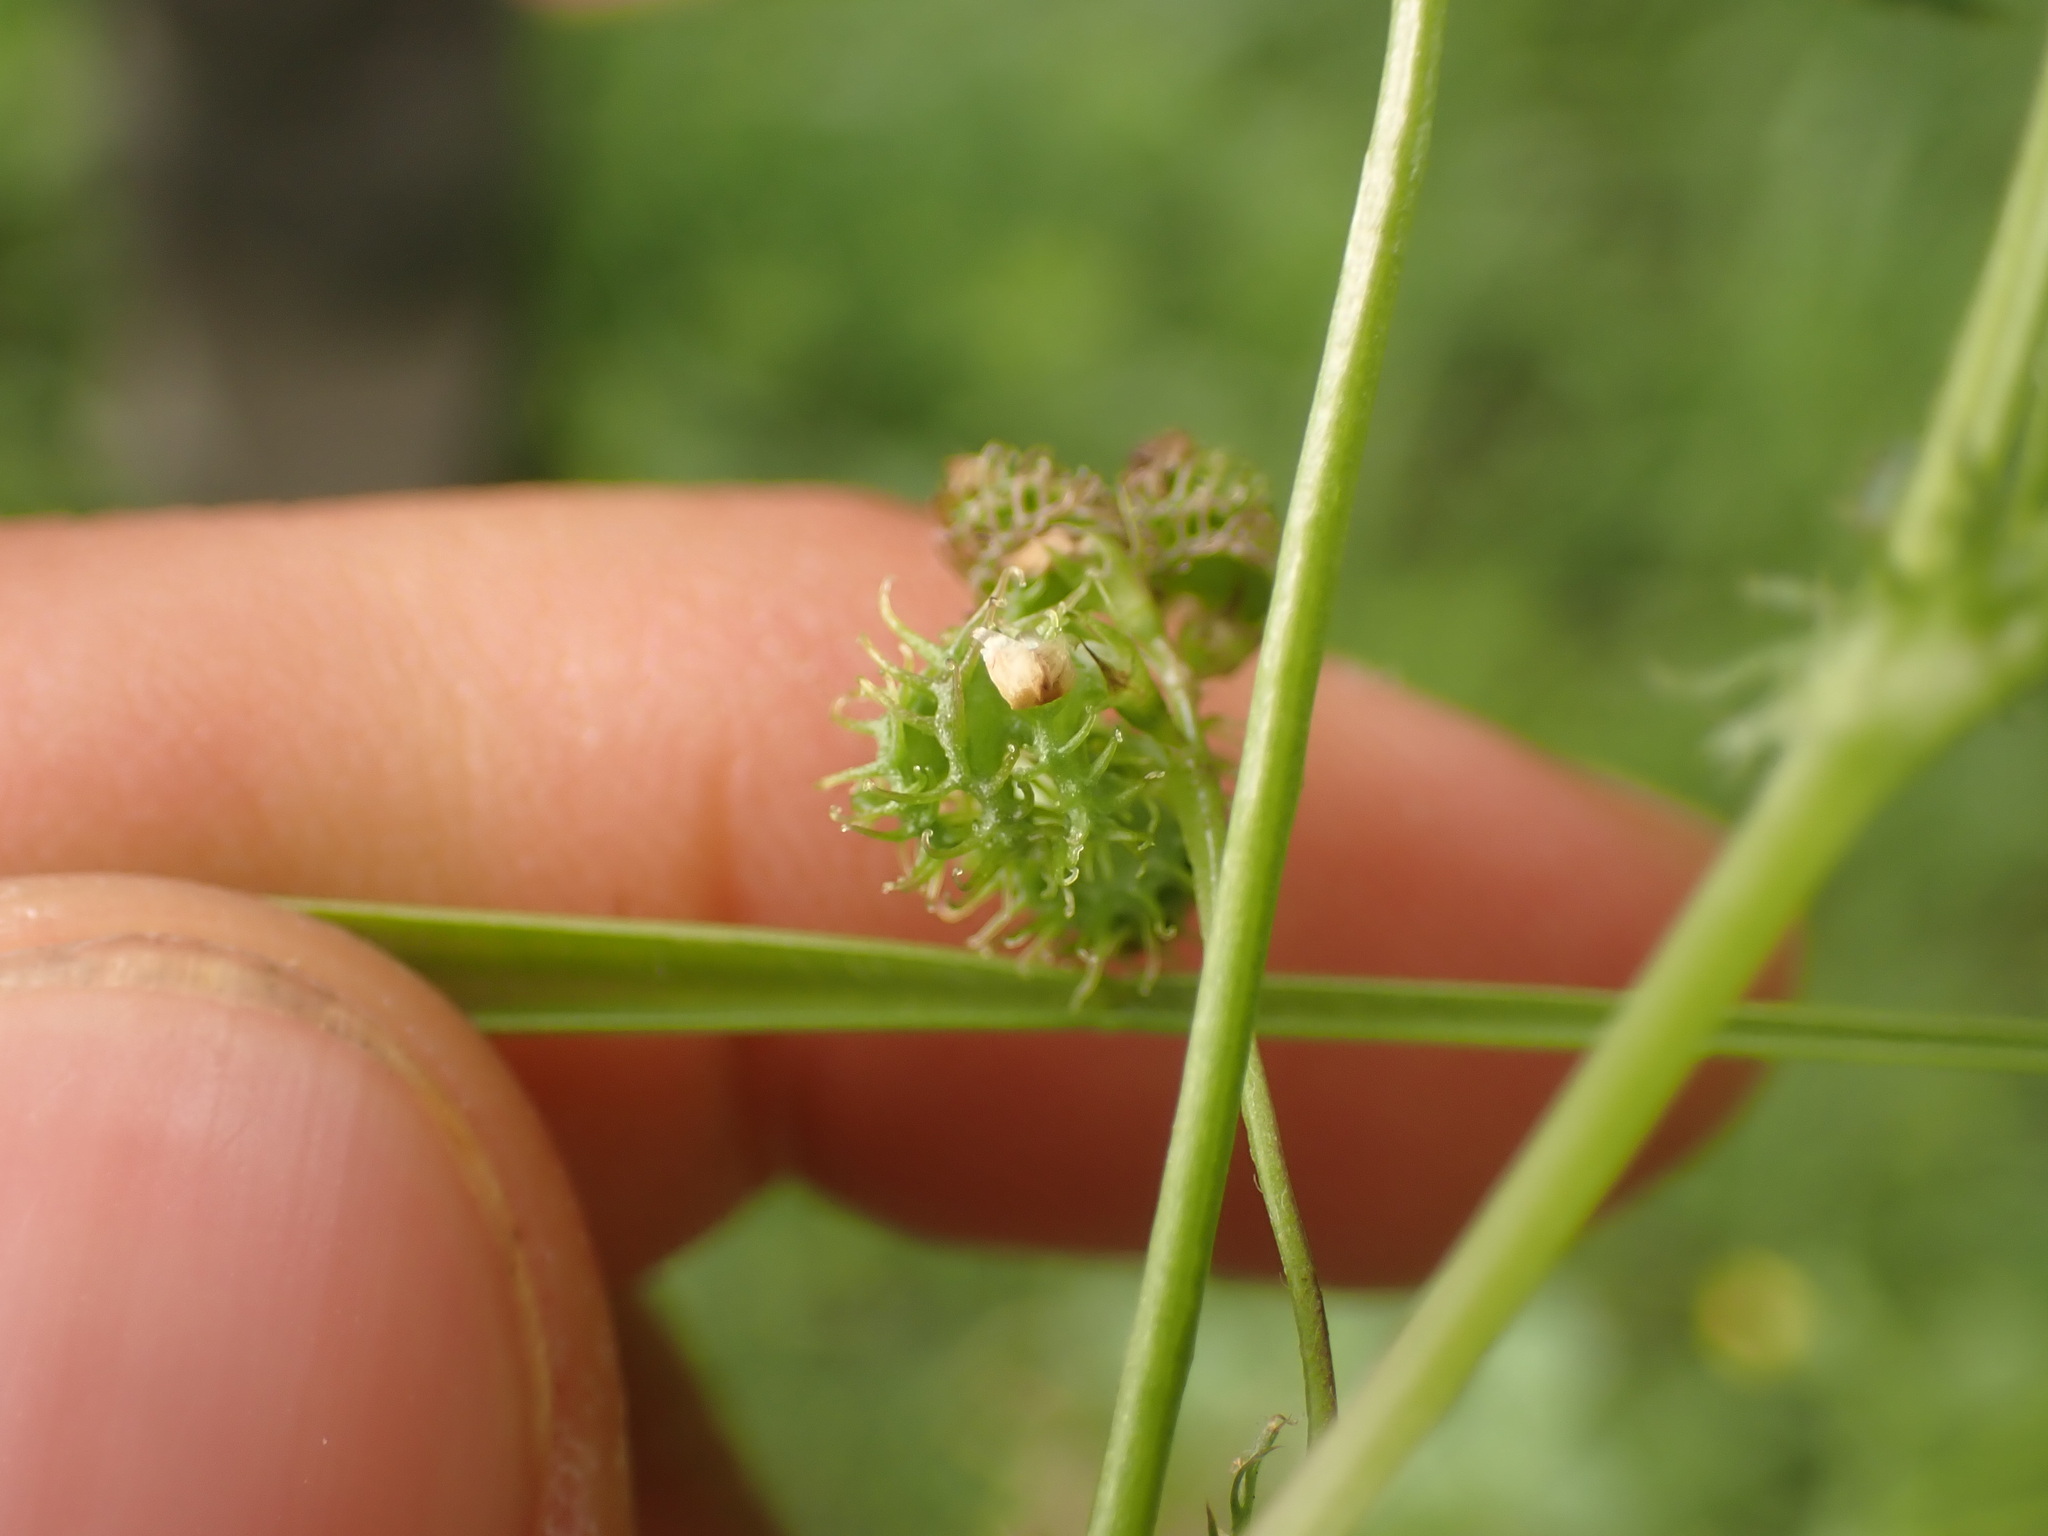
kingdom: Plantae
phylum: Tracheophyta
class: Magnoliopsida
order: Fabales
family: Fabaceae
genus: Medicago
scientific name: Medicago polymorpha
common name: Burclover
